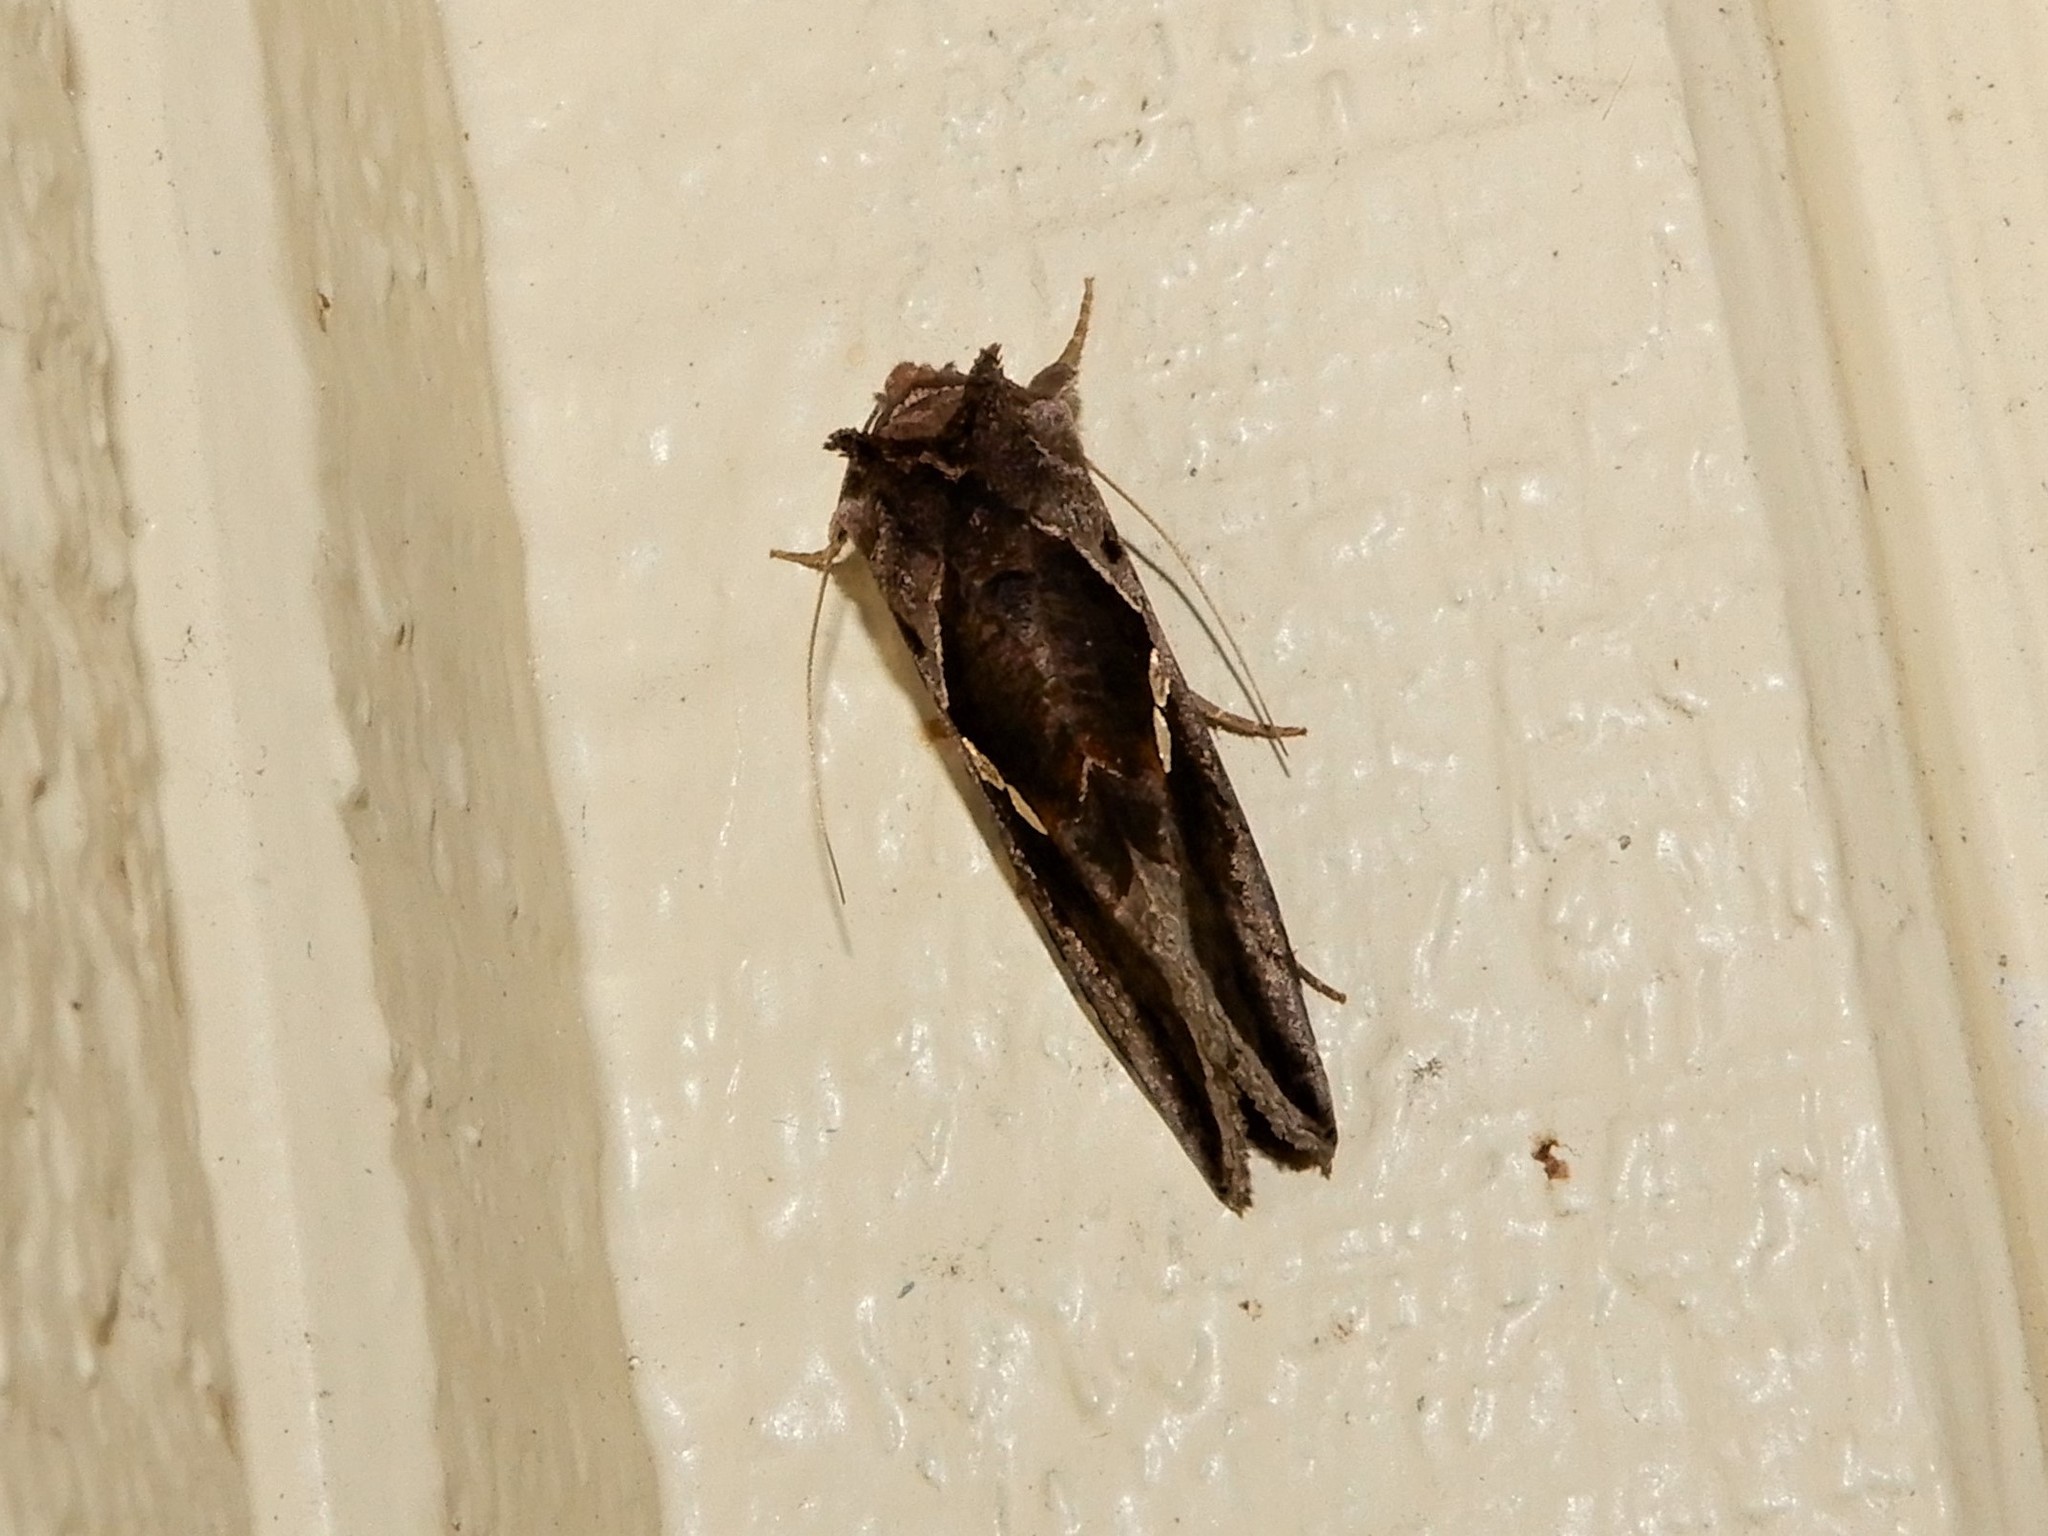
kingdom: Animalia
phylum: Arthropoda
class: Insecta
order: Lepidoptera
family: Noctuidae
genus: Chrysodeixis
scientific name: Chrysodeixis eriosoma
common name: Green garden looper
